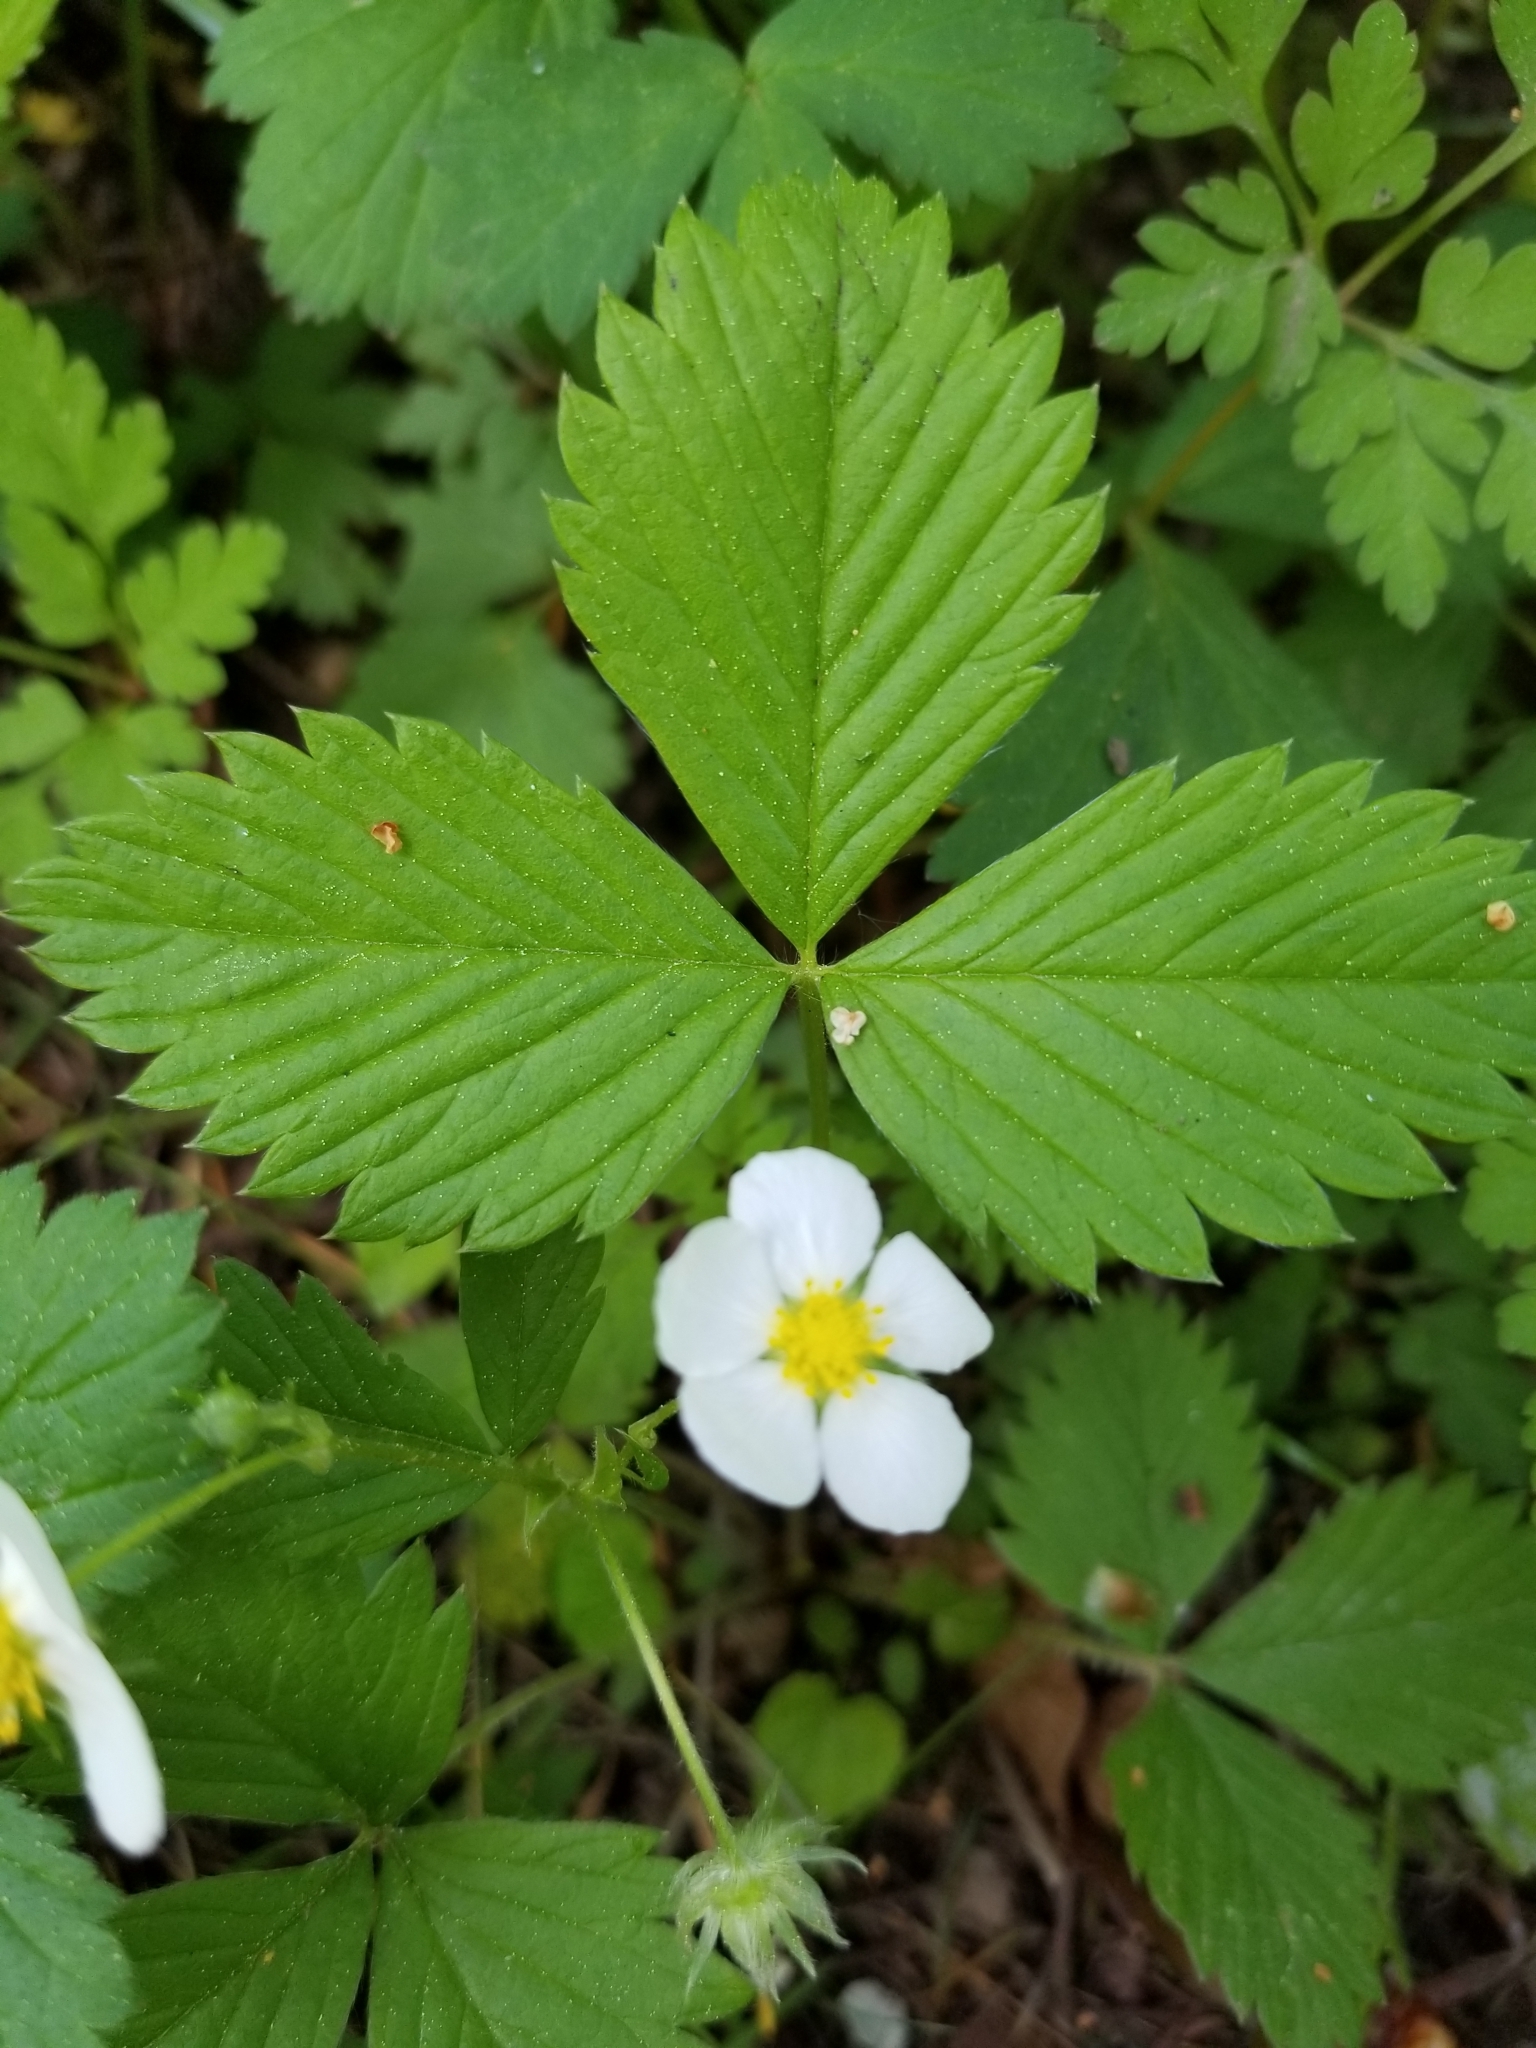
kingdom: Plantae
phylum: Tracheophyta
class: Magnoliopsida
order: Rosales
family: Rosaceae
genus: Fragaria
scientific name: Fragaria vesca
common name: Wild strawberry
